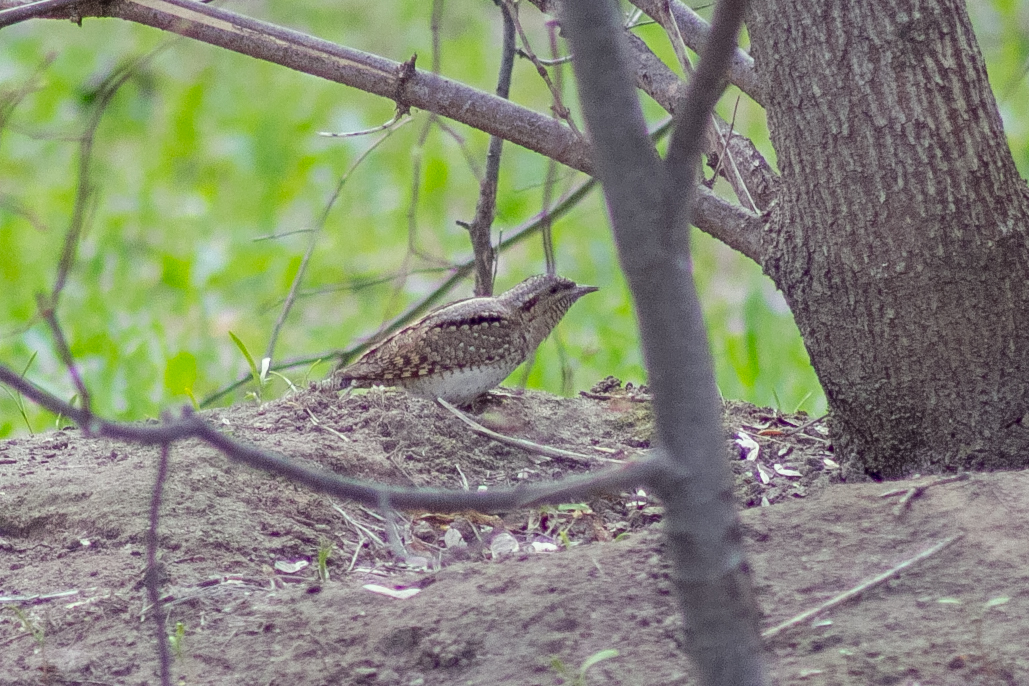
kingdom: Animalia
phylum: Chordata
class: Aves
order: Piciformes
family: Picidae
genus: Jynx
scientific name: Jynx torquilla
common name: Eurasian wryneck
